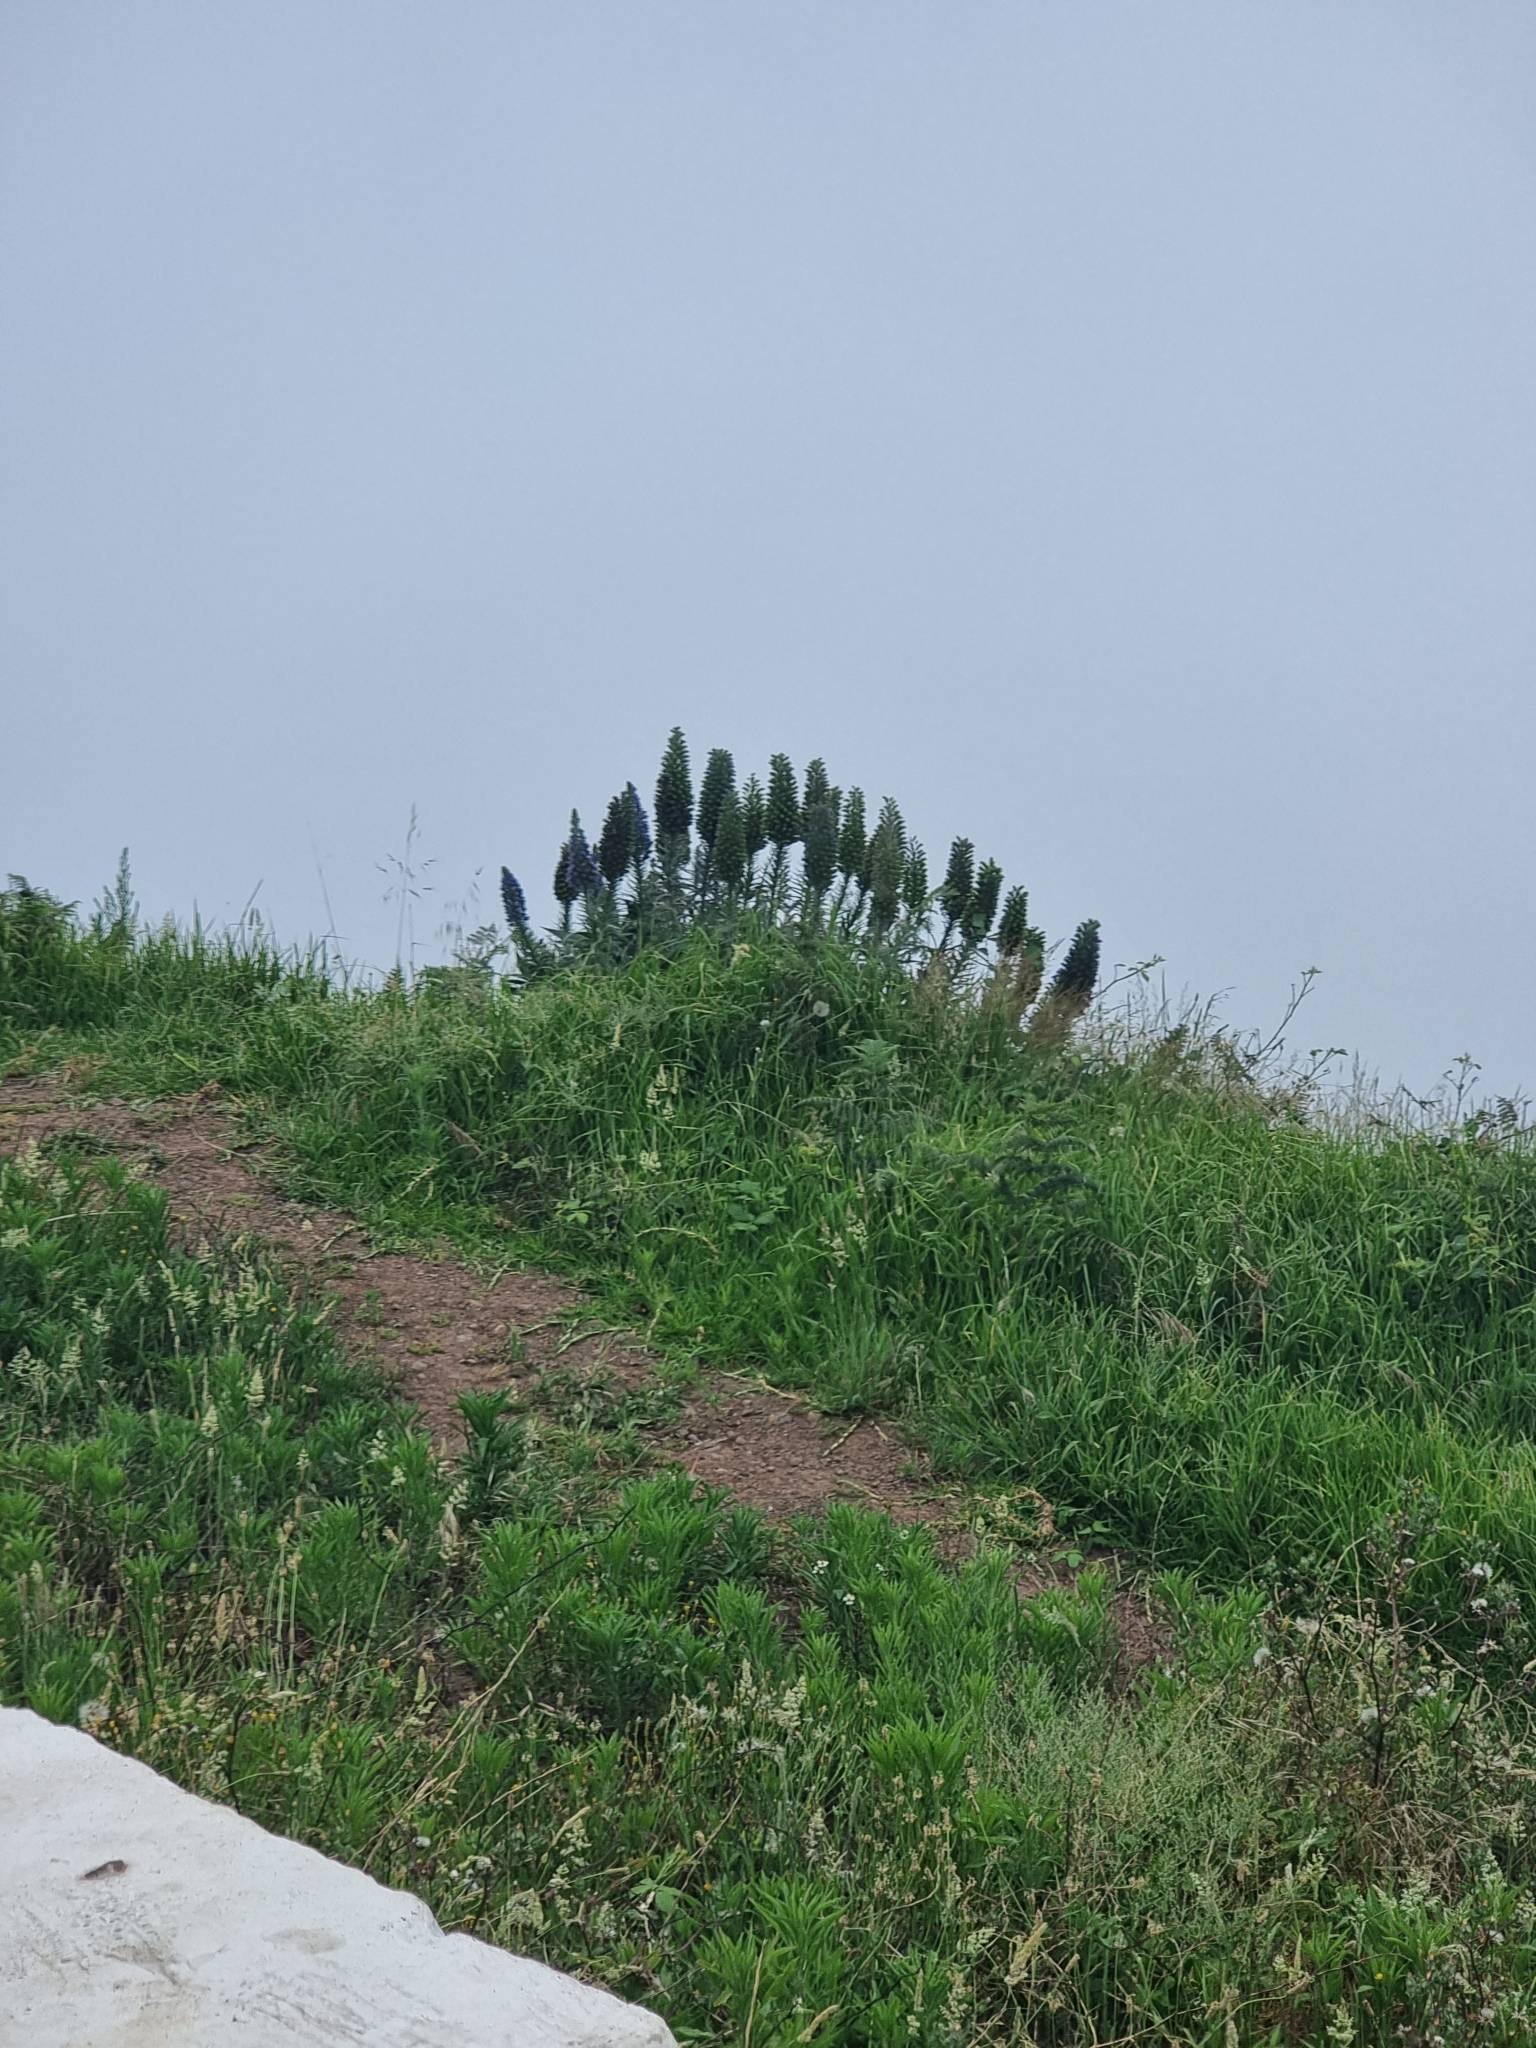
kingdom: Plantae
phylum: Tracheophyta
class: Magnoliopsida
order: Boraginales
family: Boraginaceae
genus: Echium
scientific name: Echium candicans
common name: Pride of madeira
